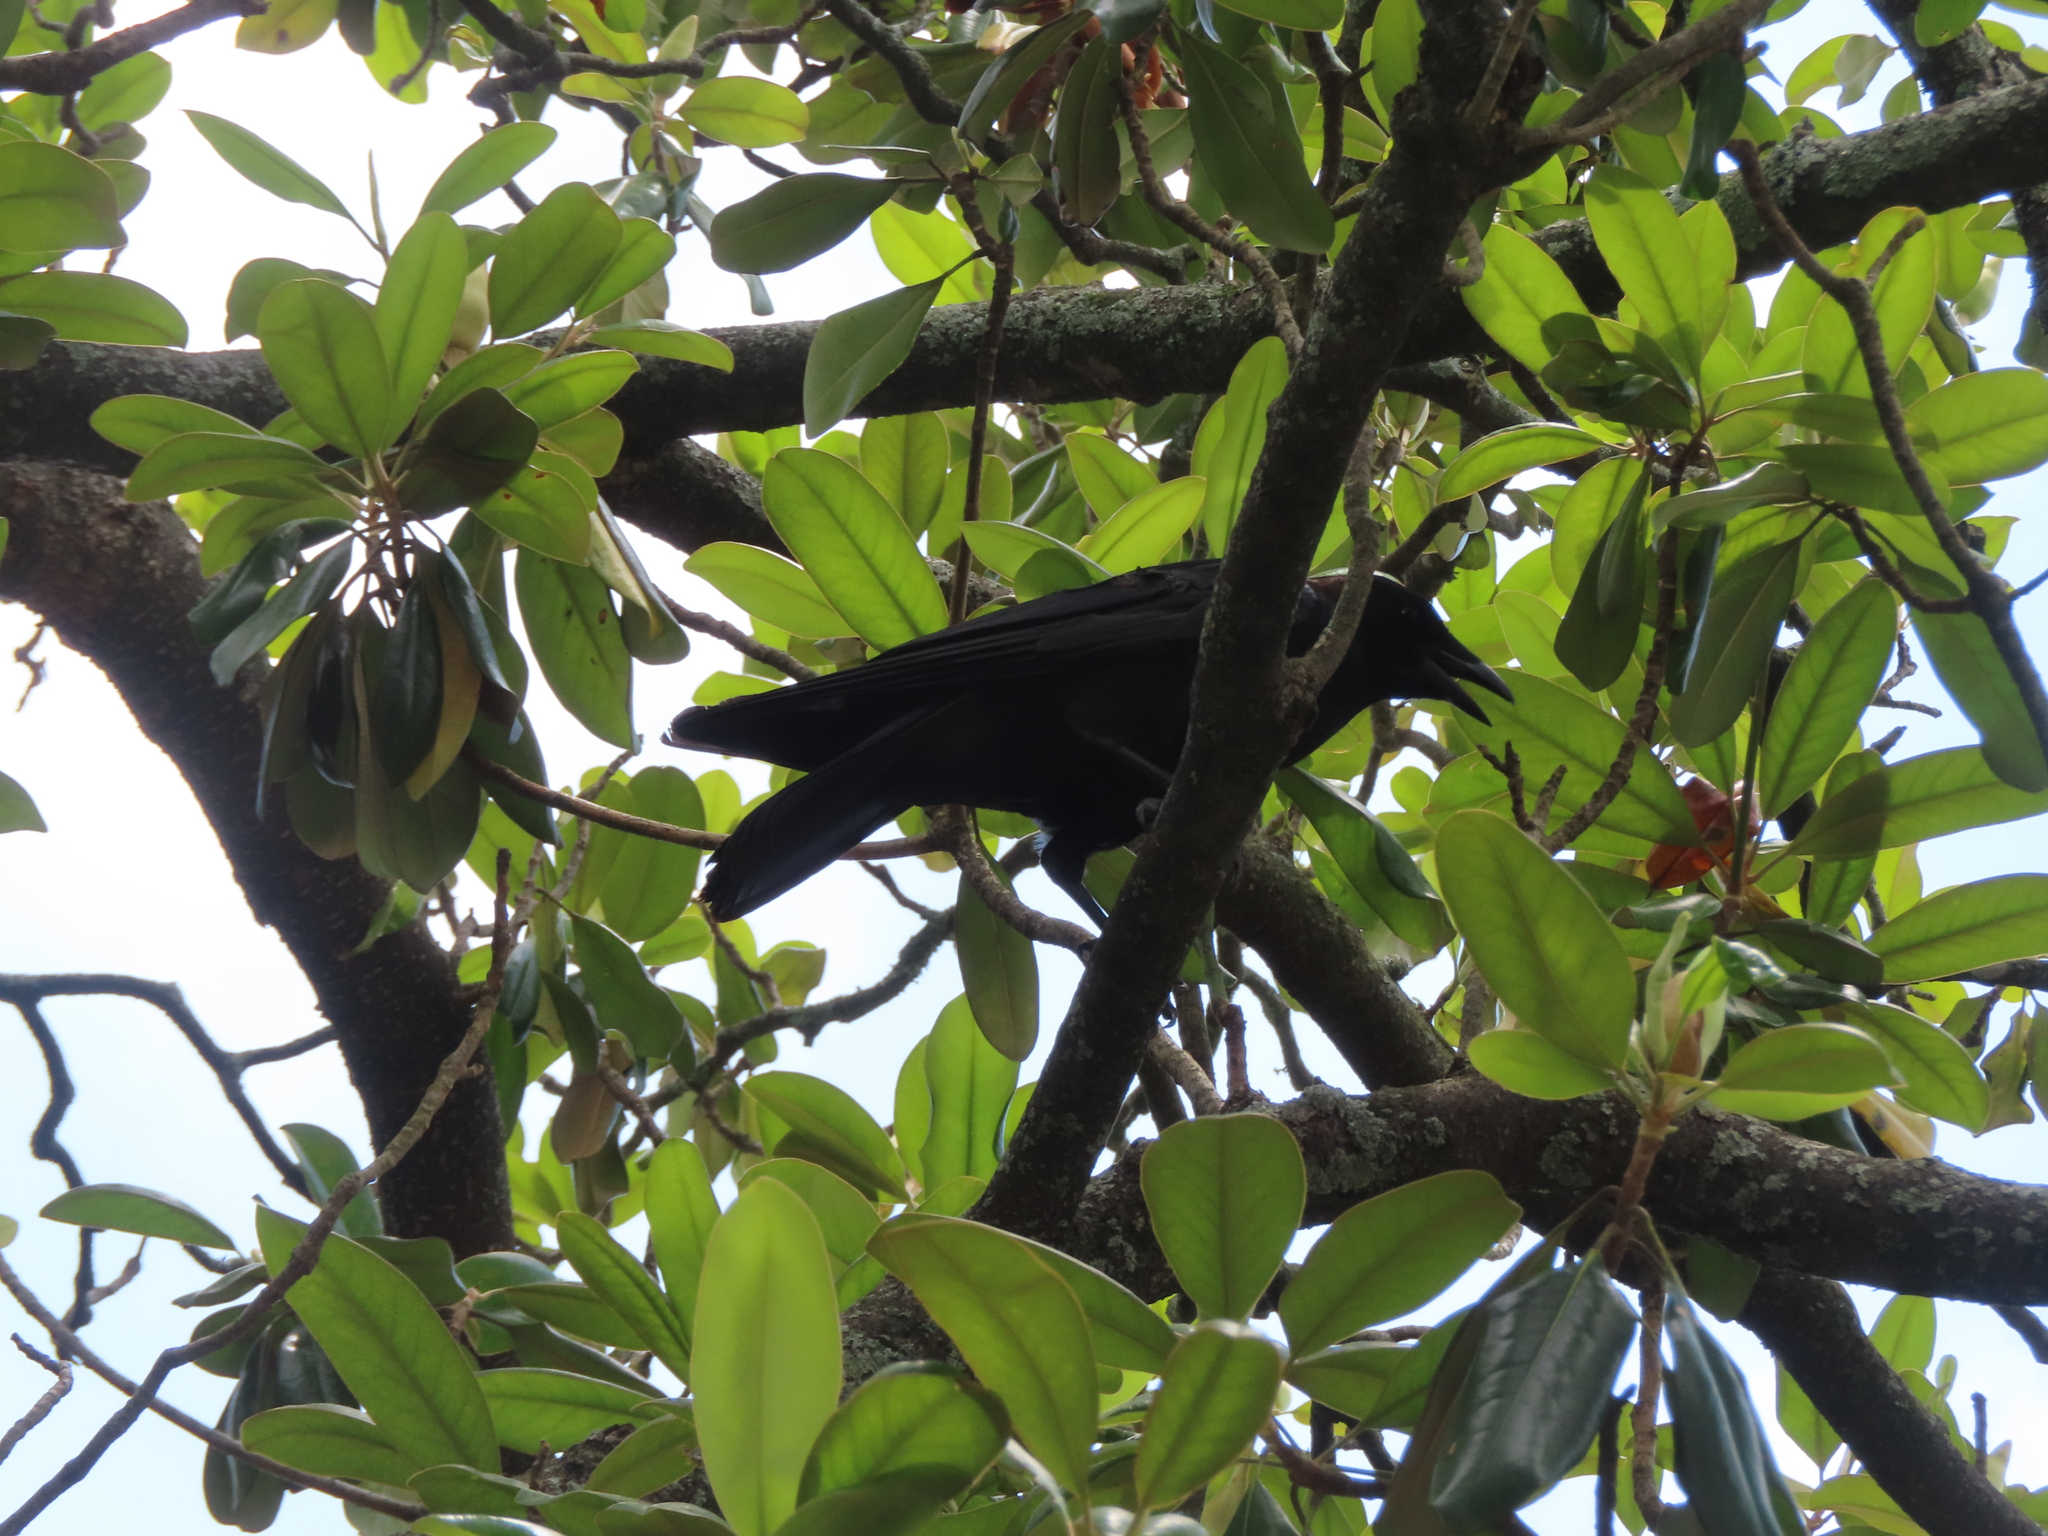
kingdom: Animalia
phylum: Chordata
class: Aves
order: Passeriformes
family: Corvidae
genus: Corvus
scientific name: Corvus brachyrhynchos
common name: American crow
